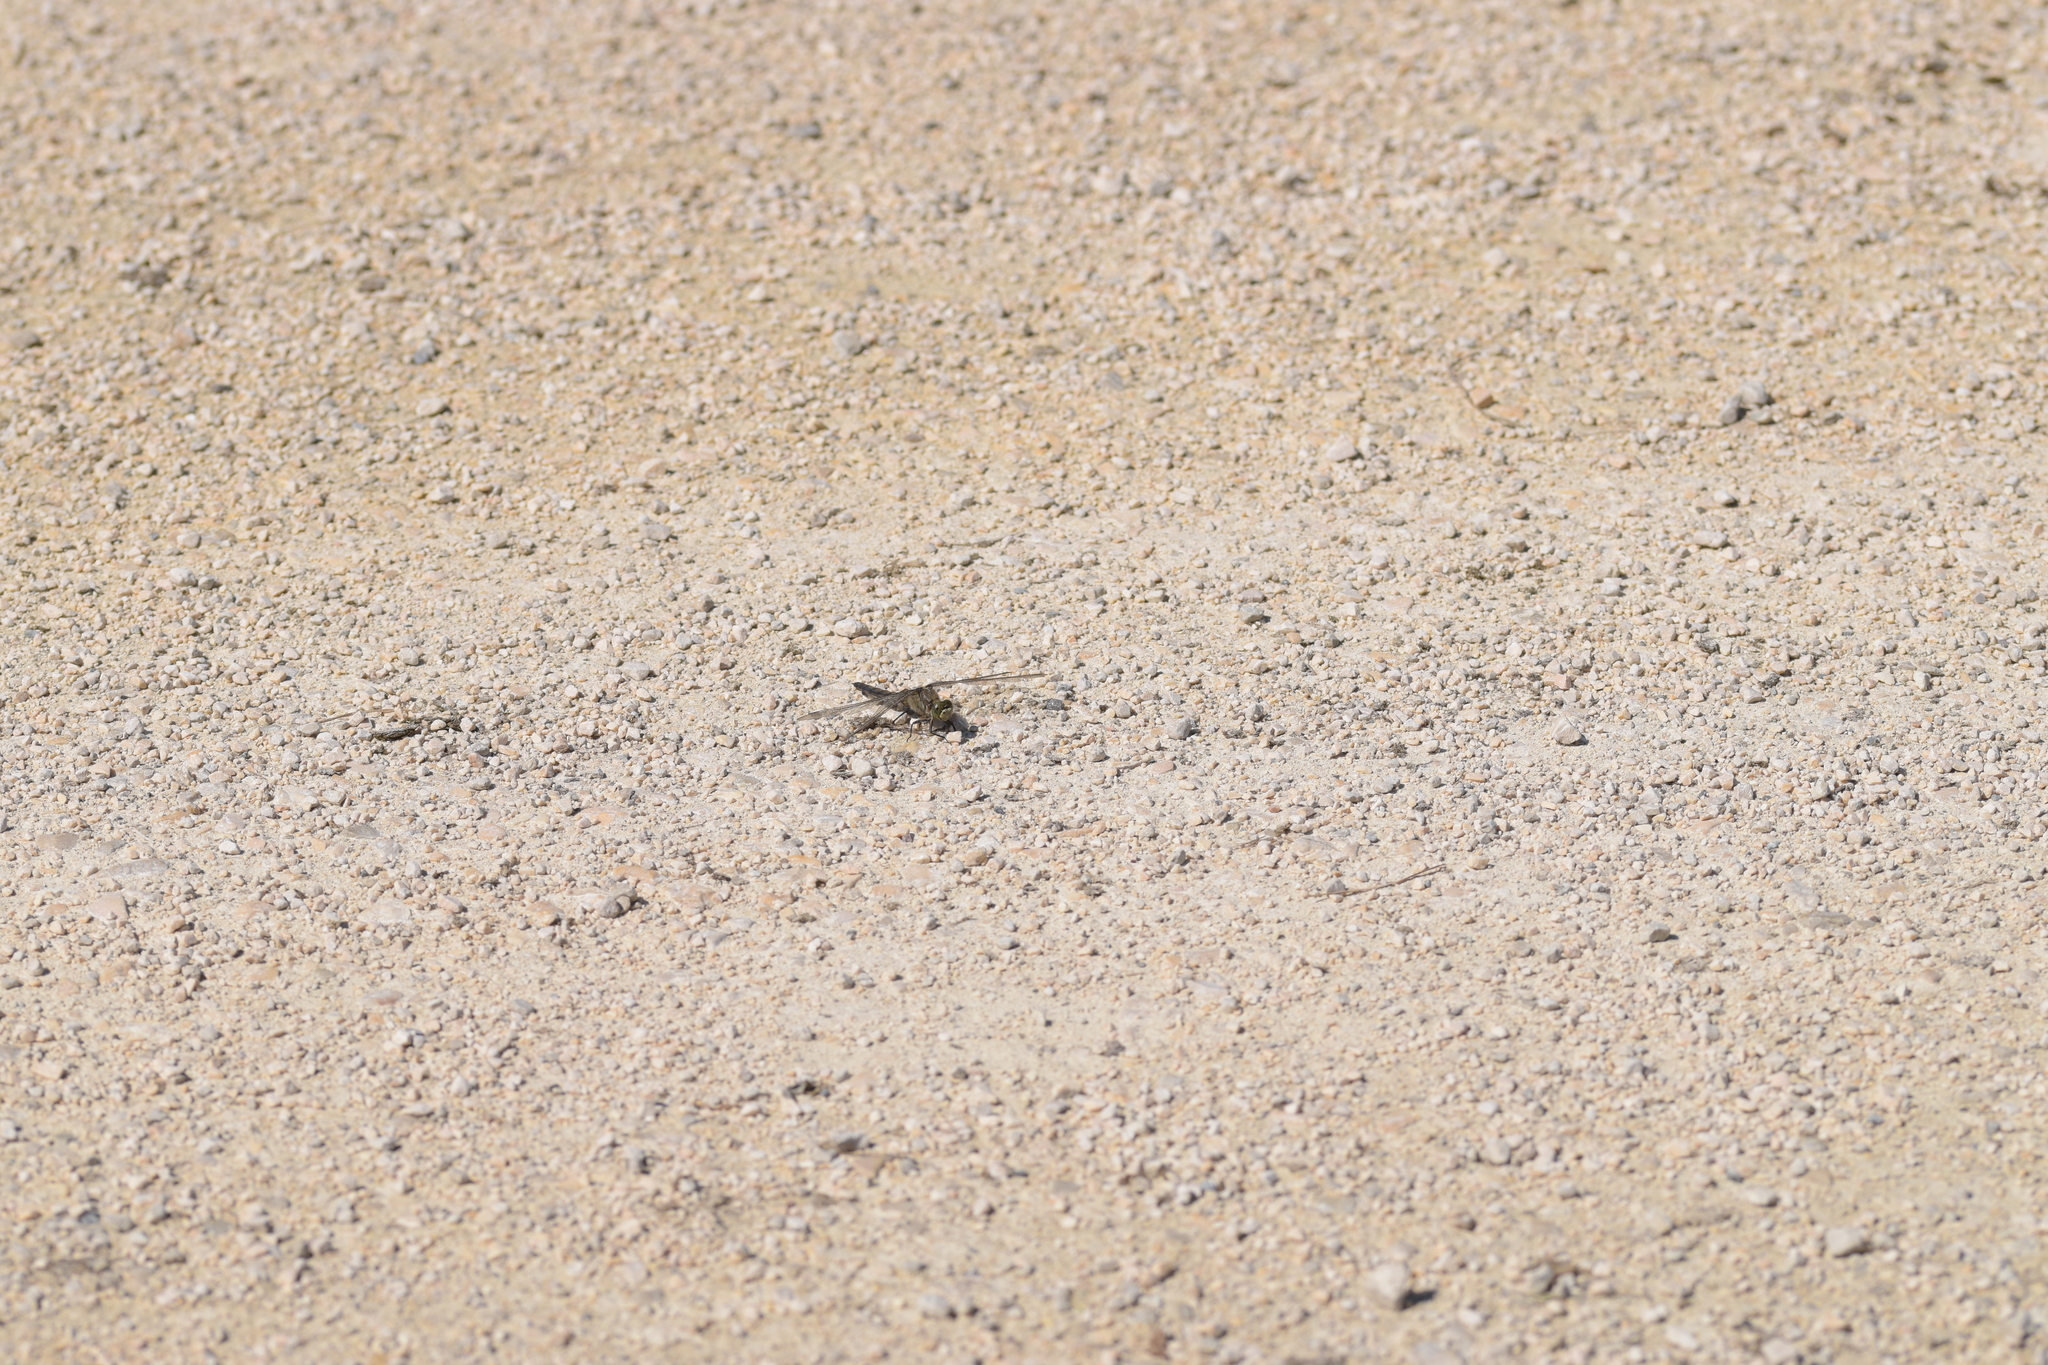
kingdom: Animalia
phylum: Arthropoda
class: Insecta
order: Odonata
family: Libellulidae
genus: Orthetrum
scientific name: Orthetrum cancellatum
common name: Black-tailed skimmer
